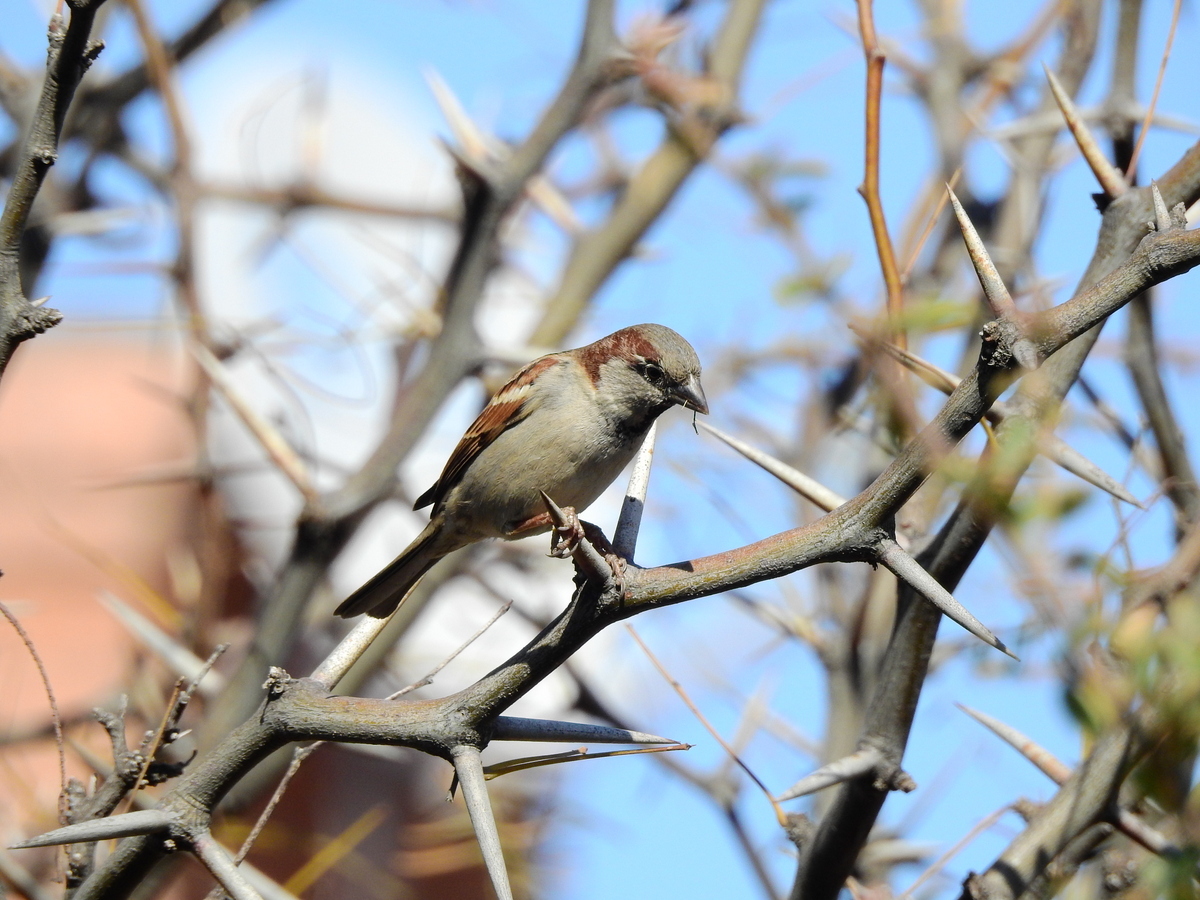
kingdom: Animalia
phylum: Chordata
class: Aves
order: Passeriformes
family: Passeridae
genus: Passer
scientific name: Passer domesticus
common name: House sparrow
